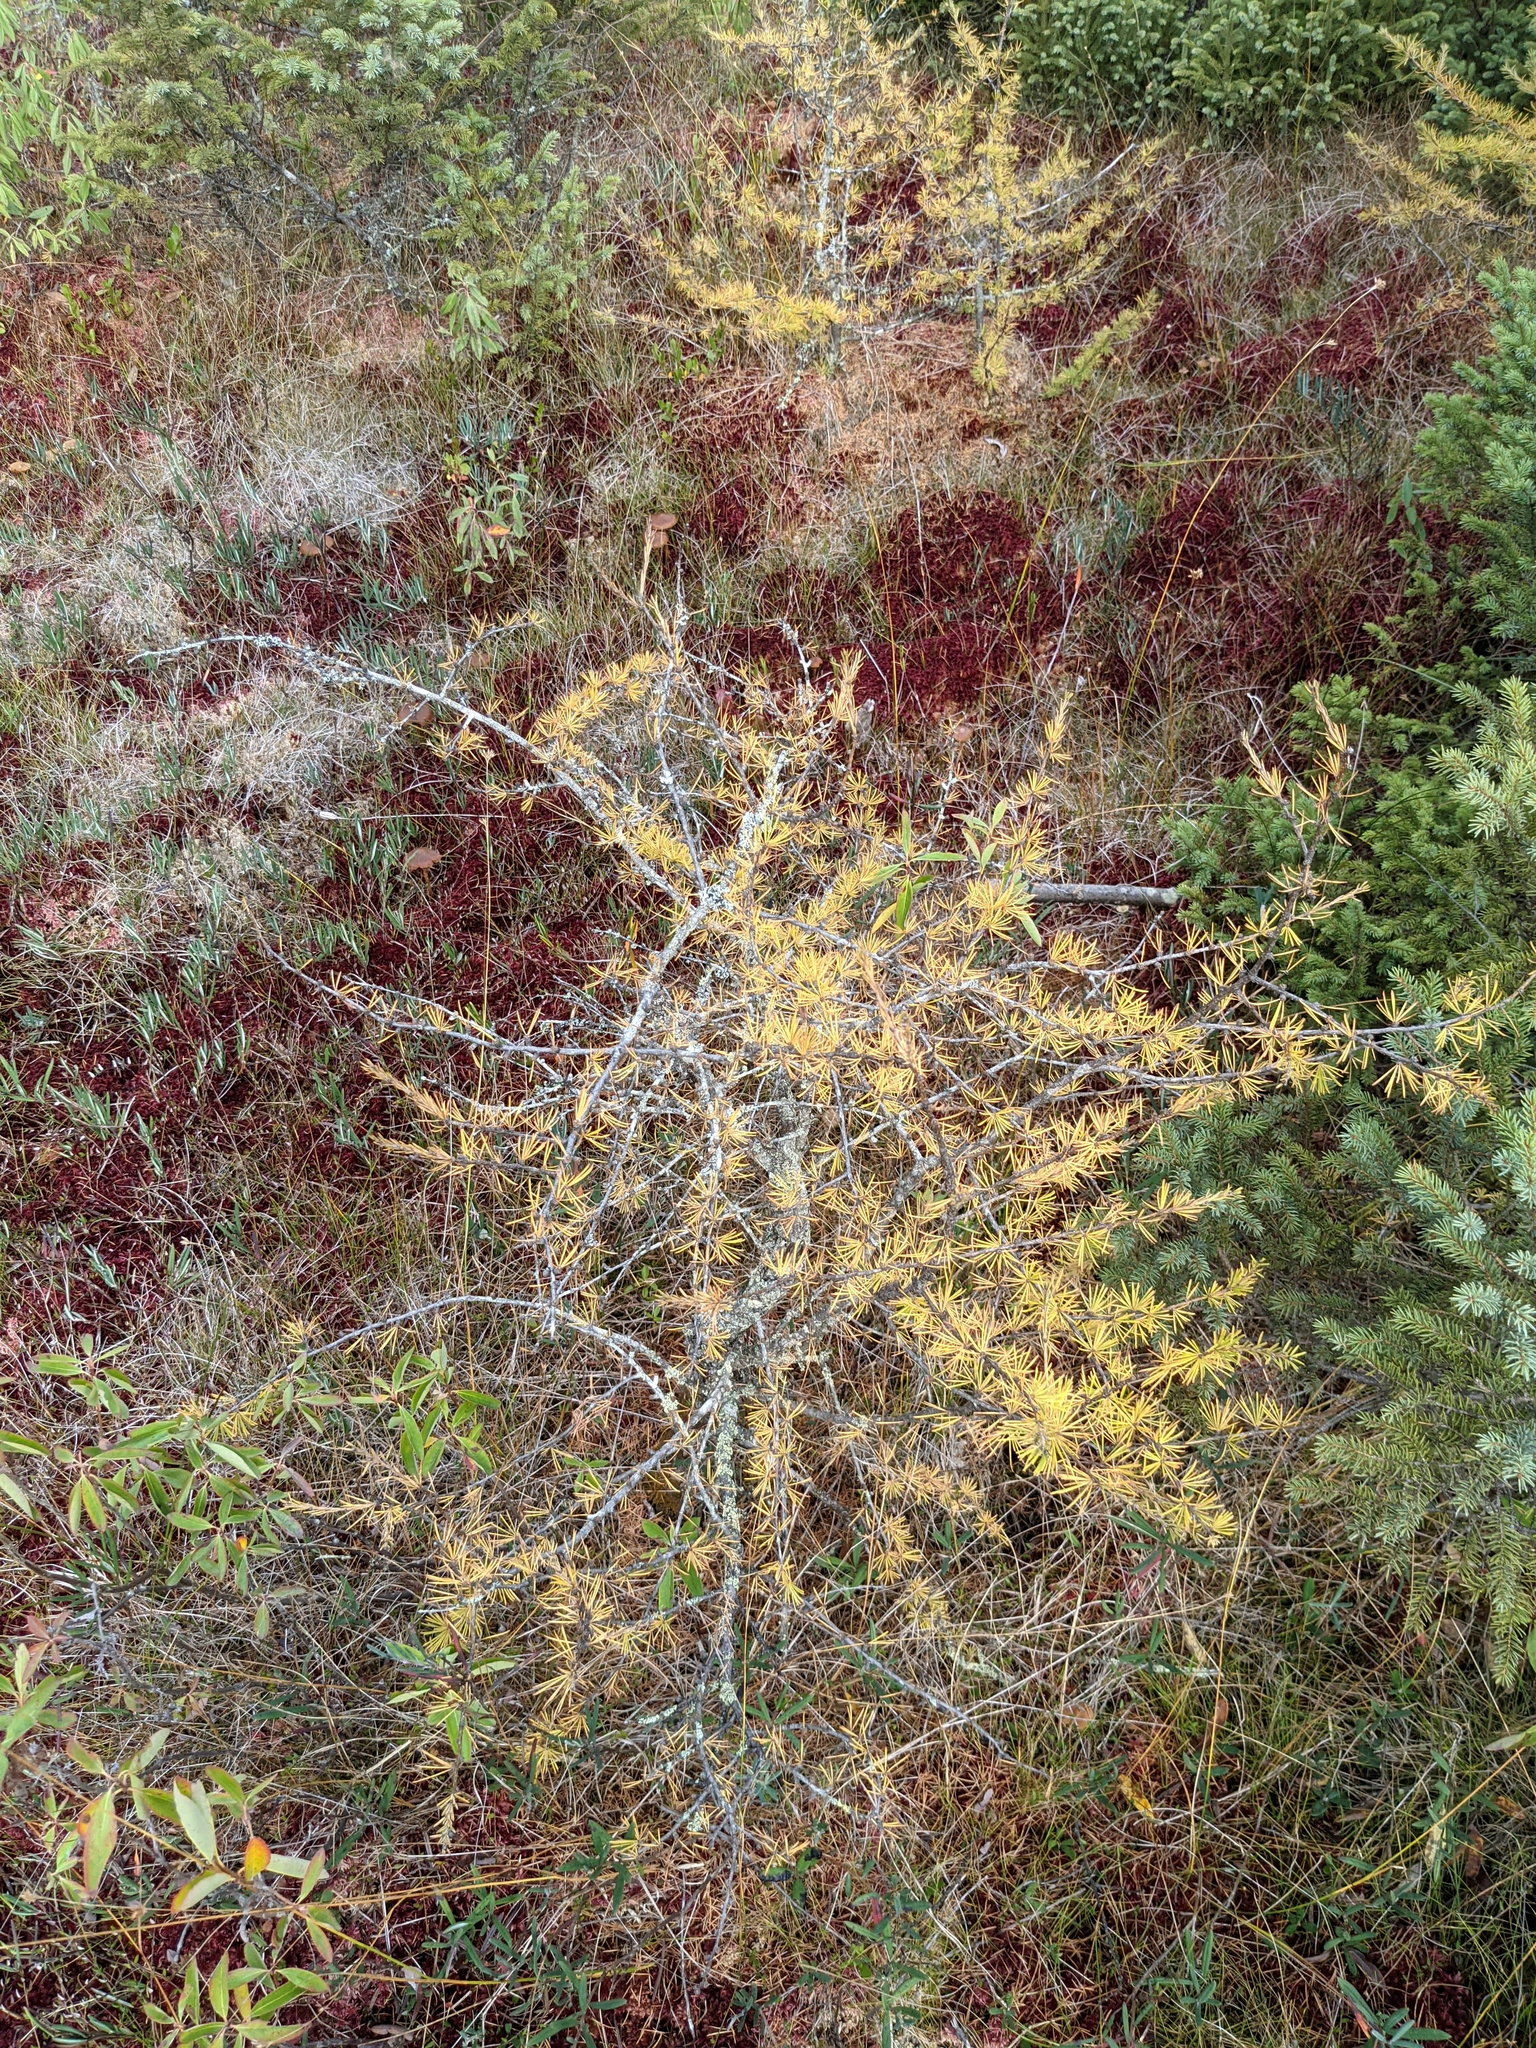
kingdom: Plantae
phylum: Tracheophyta
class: Pinopsida
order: Pinales
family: Pinaceae
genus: Larix
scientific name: Larix laricina
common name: American larch
